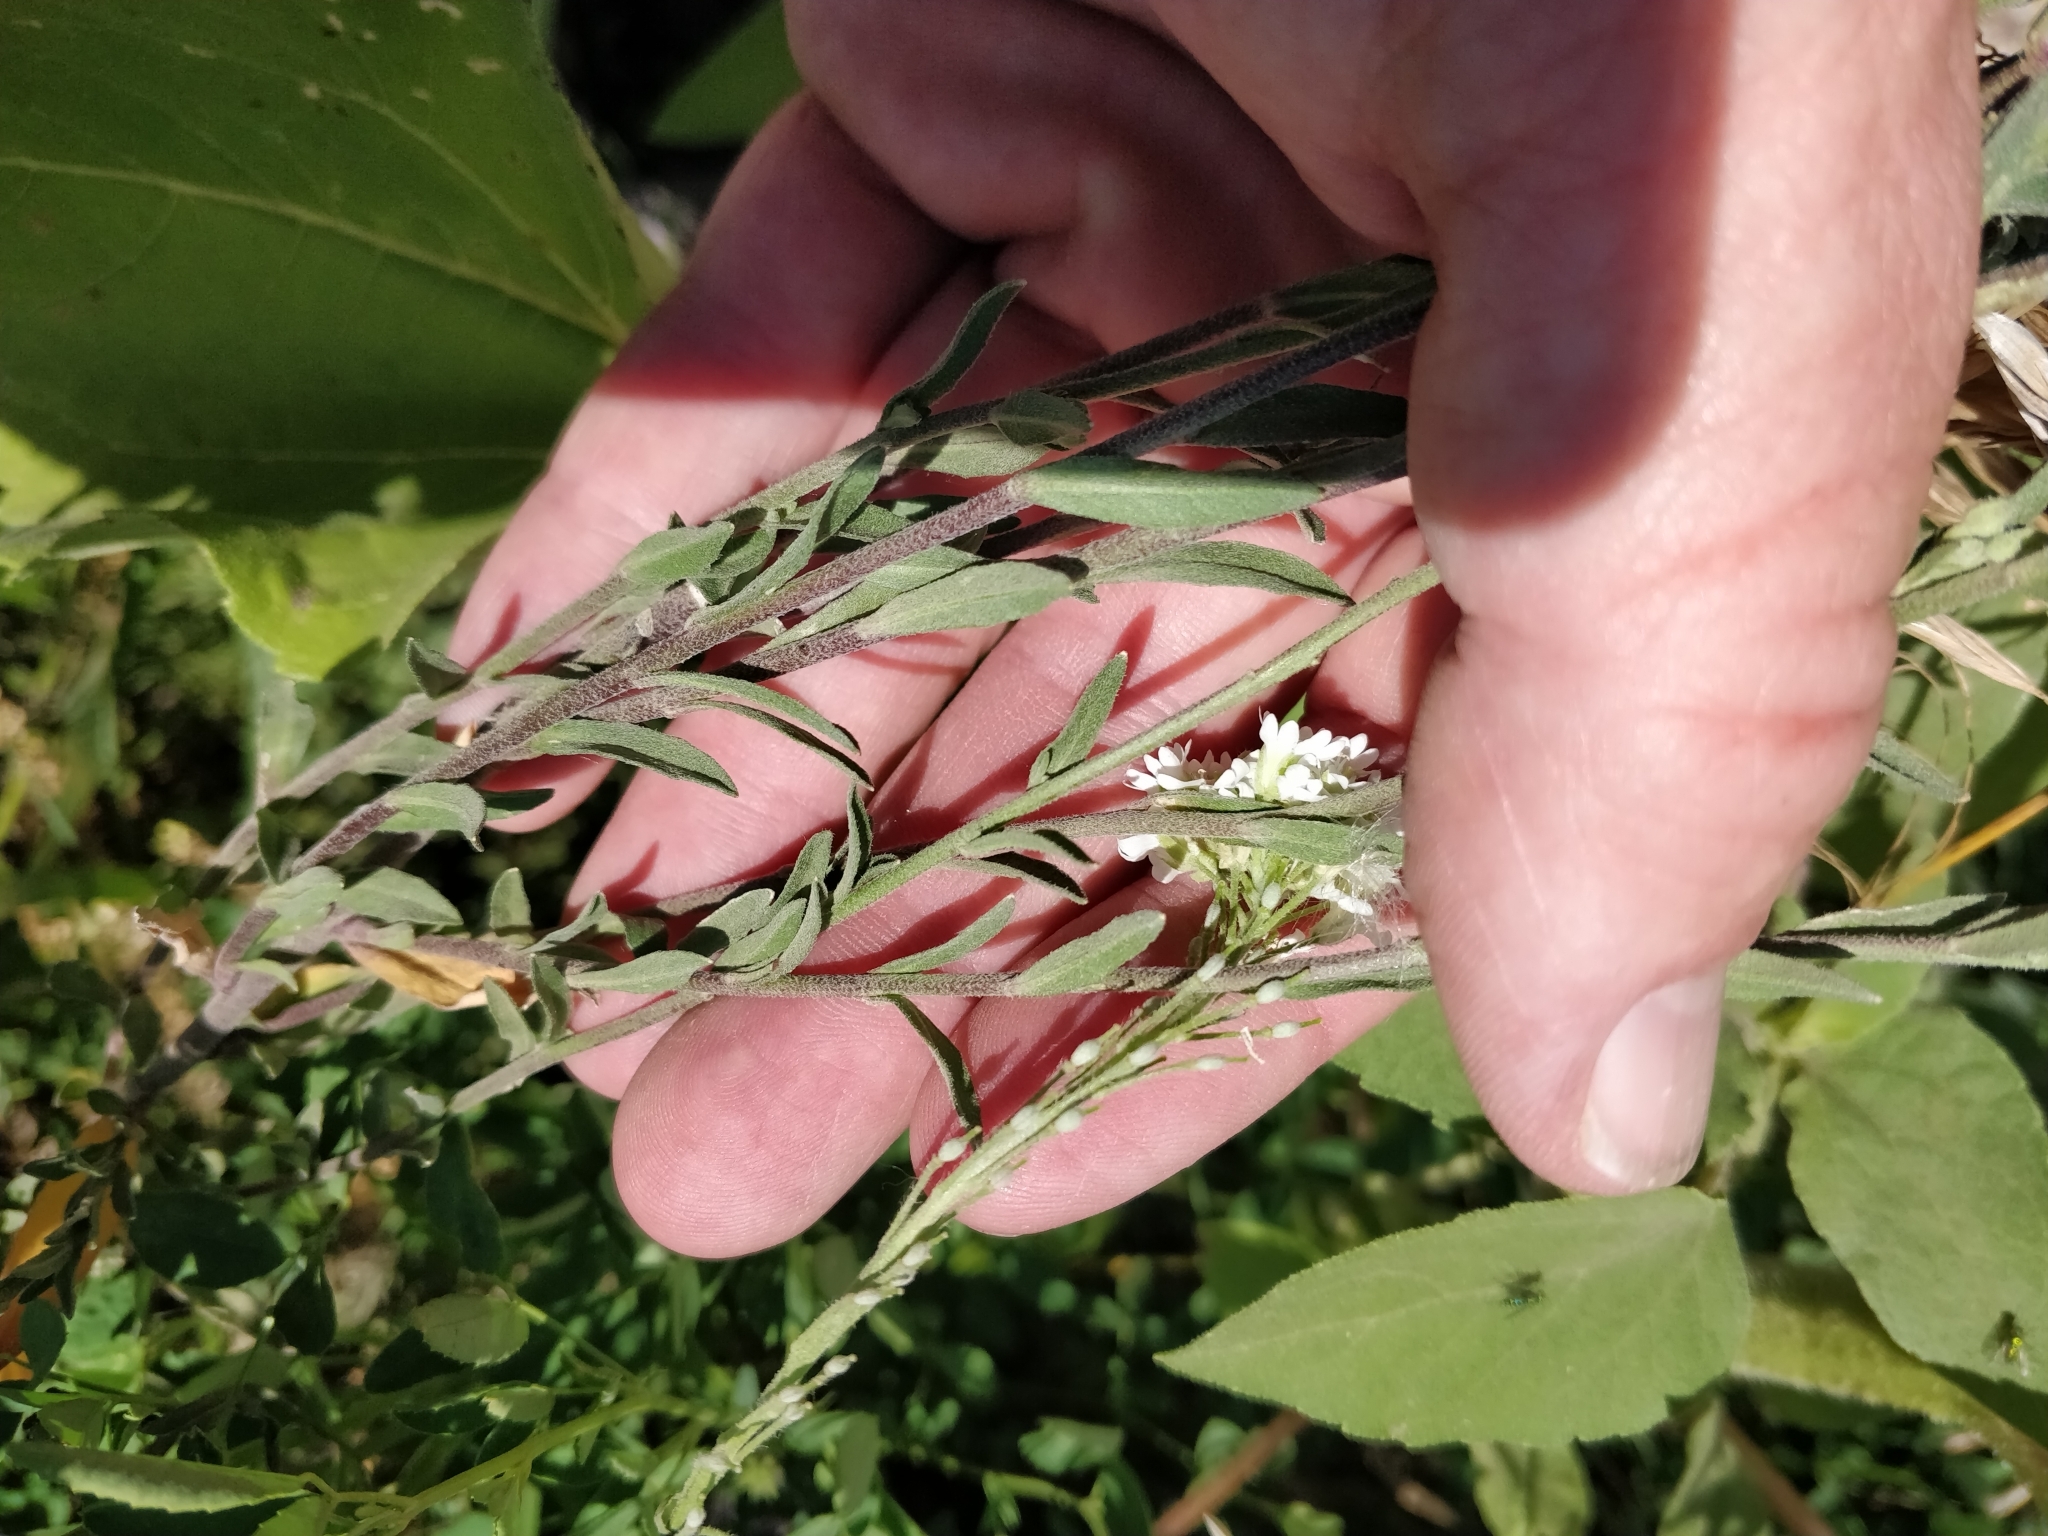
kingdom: Plantae
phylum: Tracheophyta
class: Magnoliopsida
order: Brassicales
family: Brassicaceae
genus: Berteroa
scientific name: Berteroa incana
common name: Hoary alison
